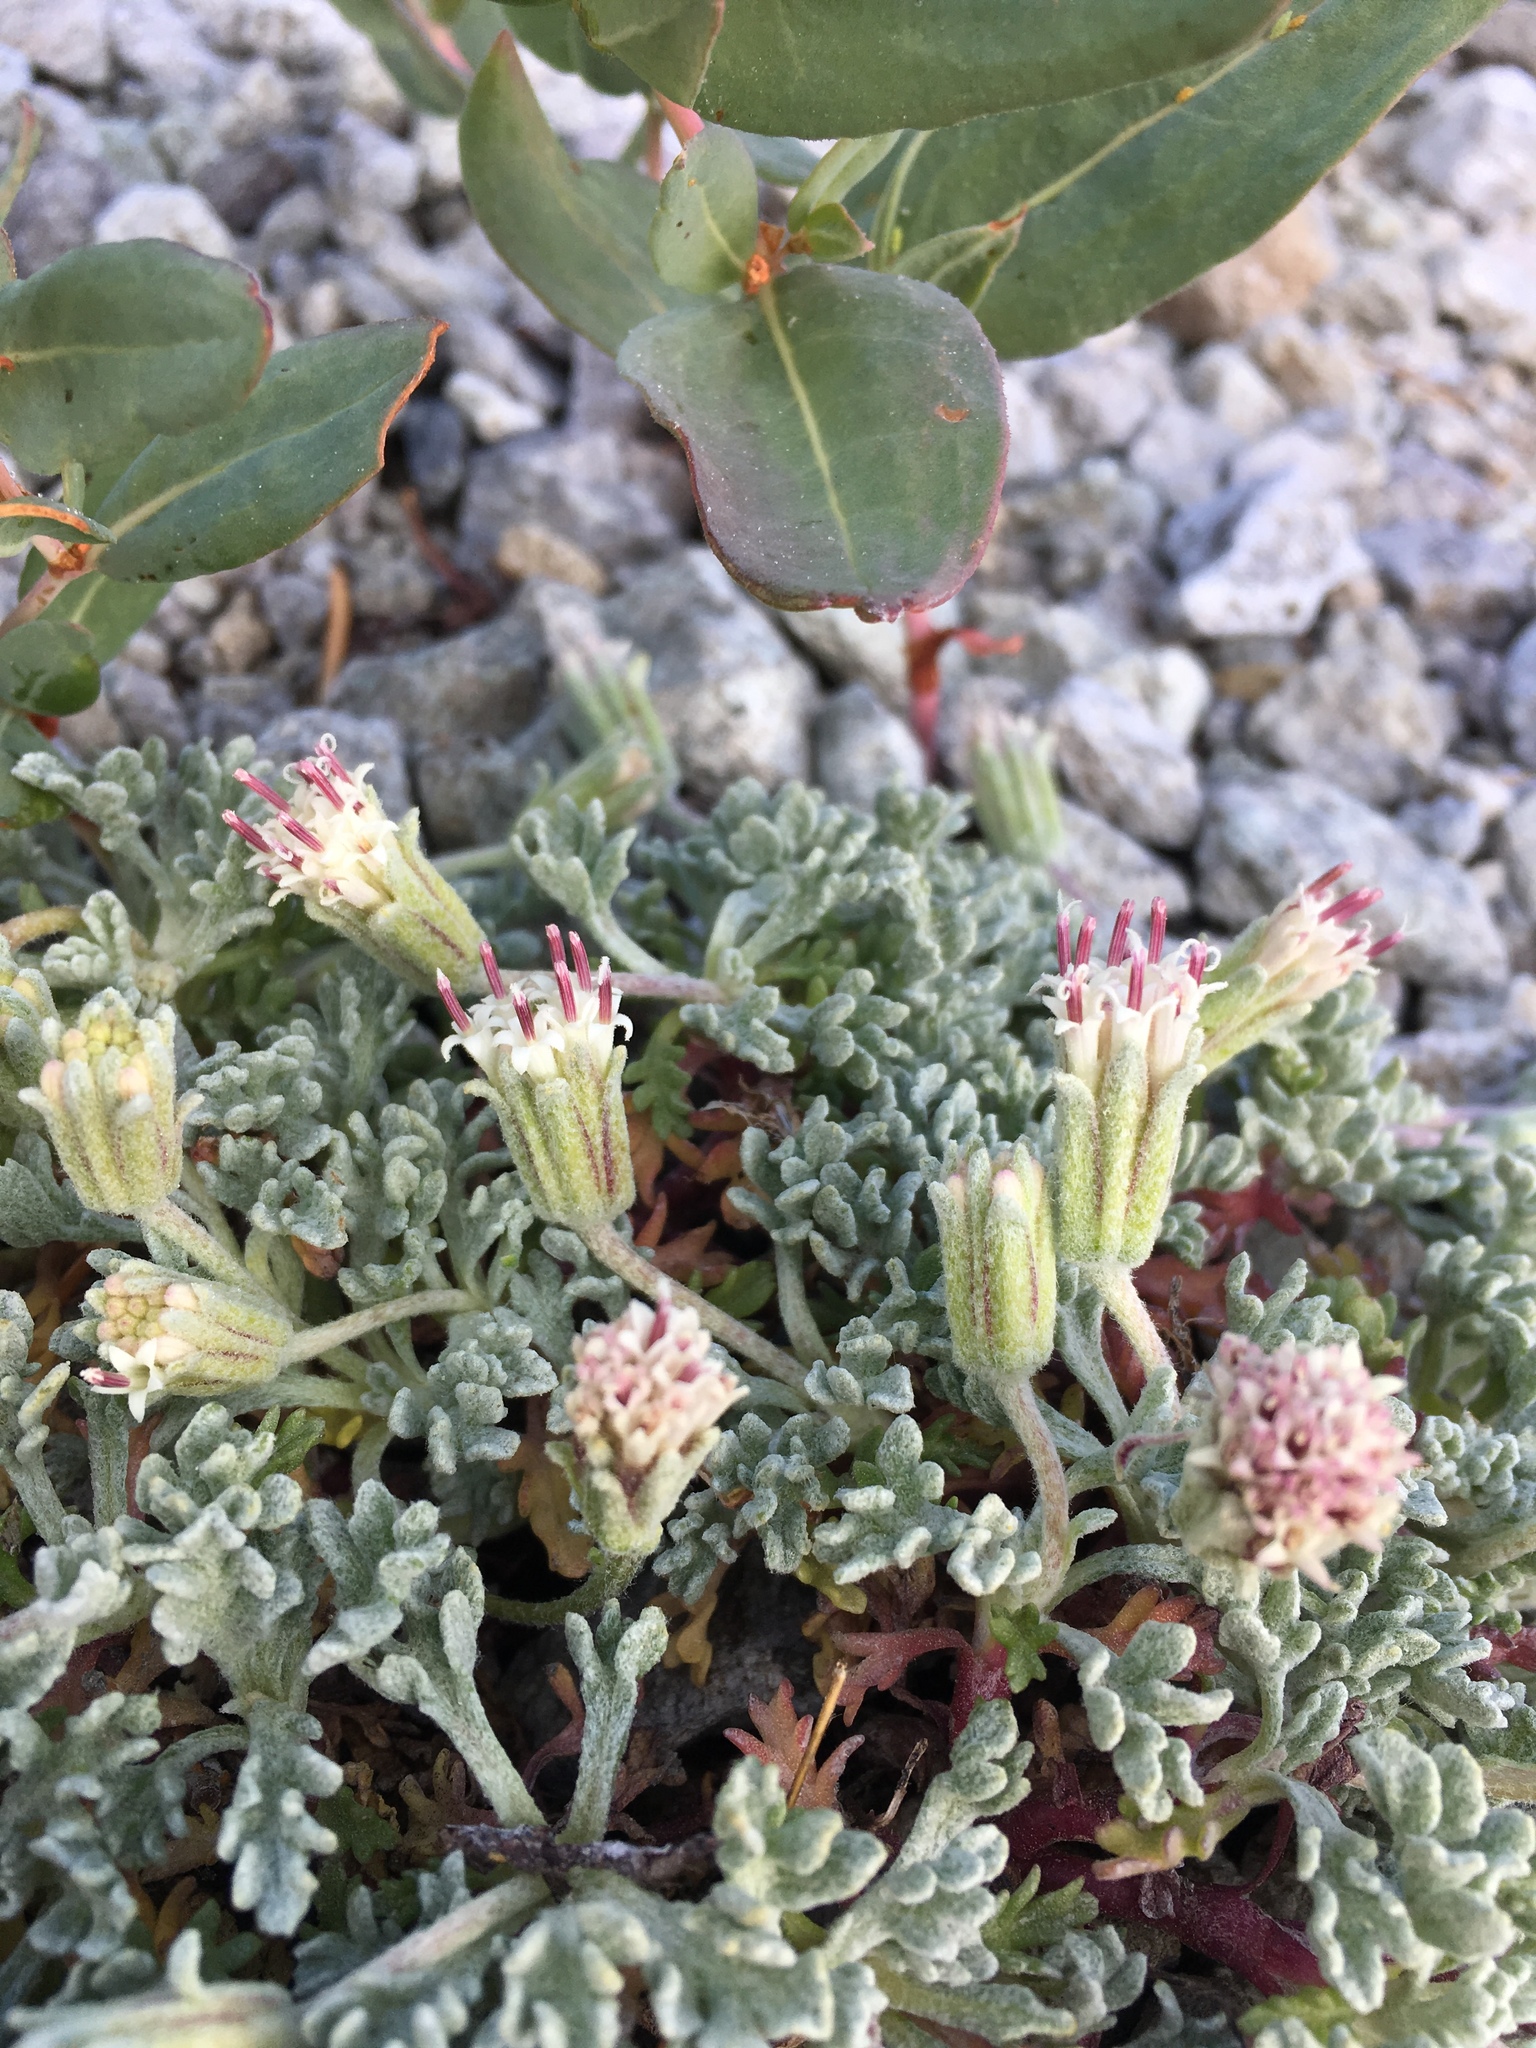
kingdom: Plantae
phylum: Tracheophyta
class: Magnoliopsida
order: Asterales
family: Asteraceae
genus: Chaenactis
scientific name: Chaenactis alpigena
